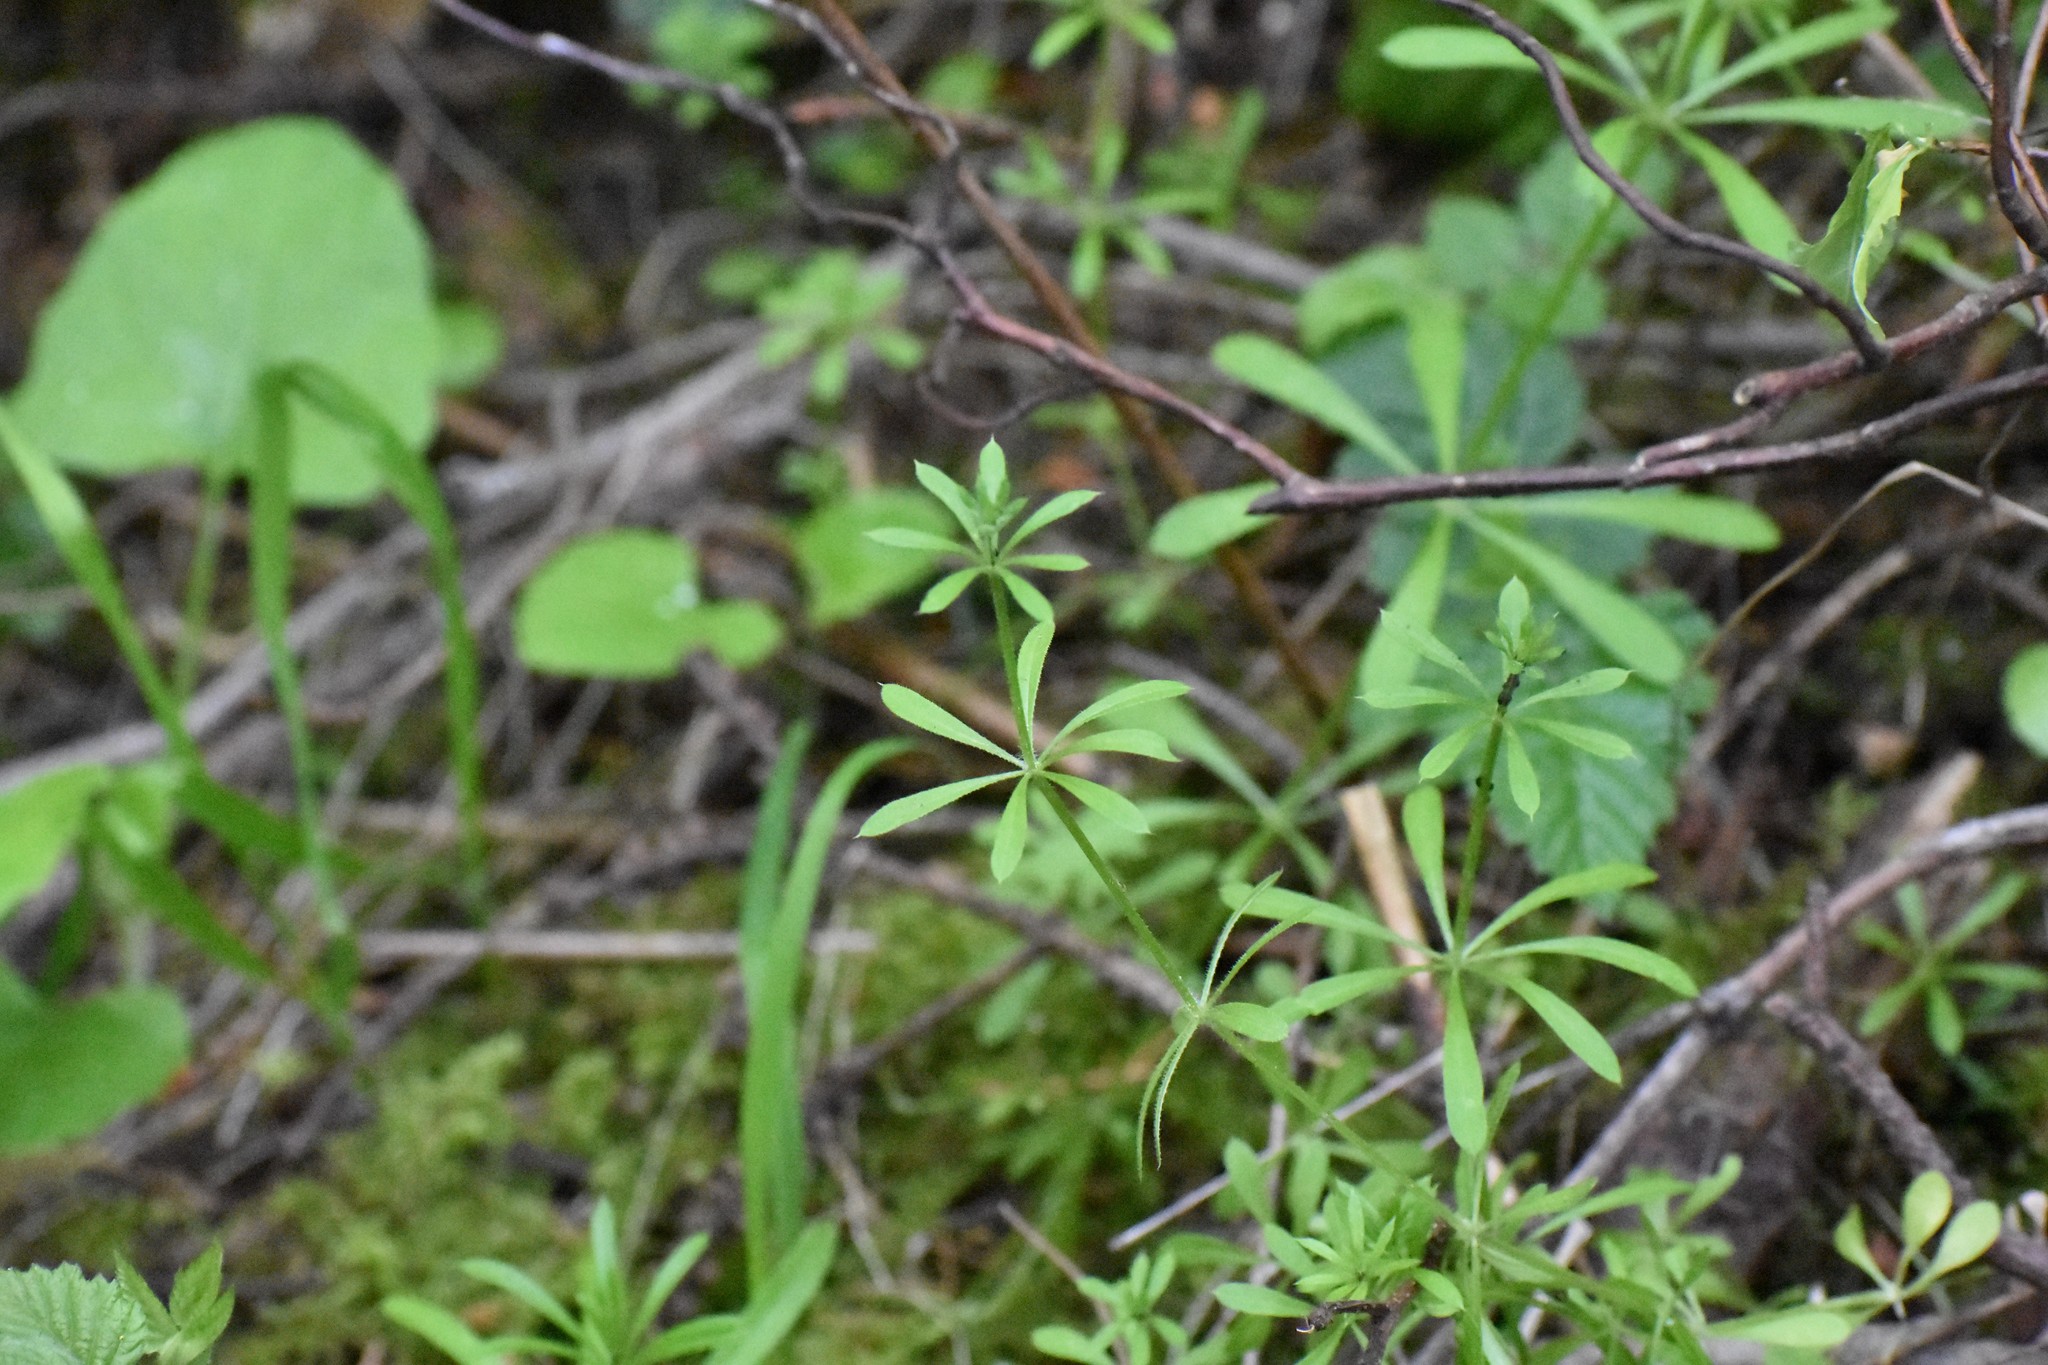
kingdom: Plantae
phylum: Tracheophyta
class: Magnoliopsida
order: Gentianales
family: Rubiaceae
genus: Galium
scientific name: Galium aparine
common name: Cleavers
